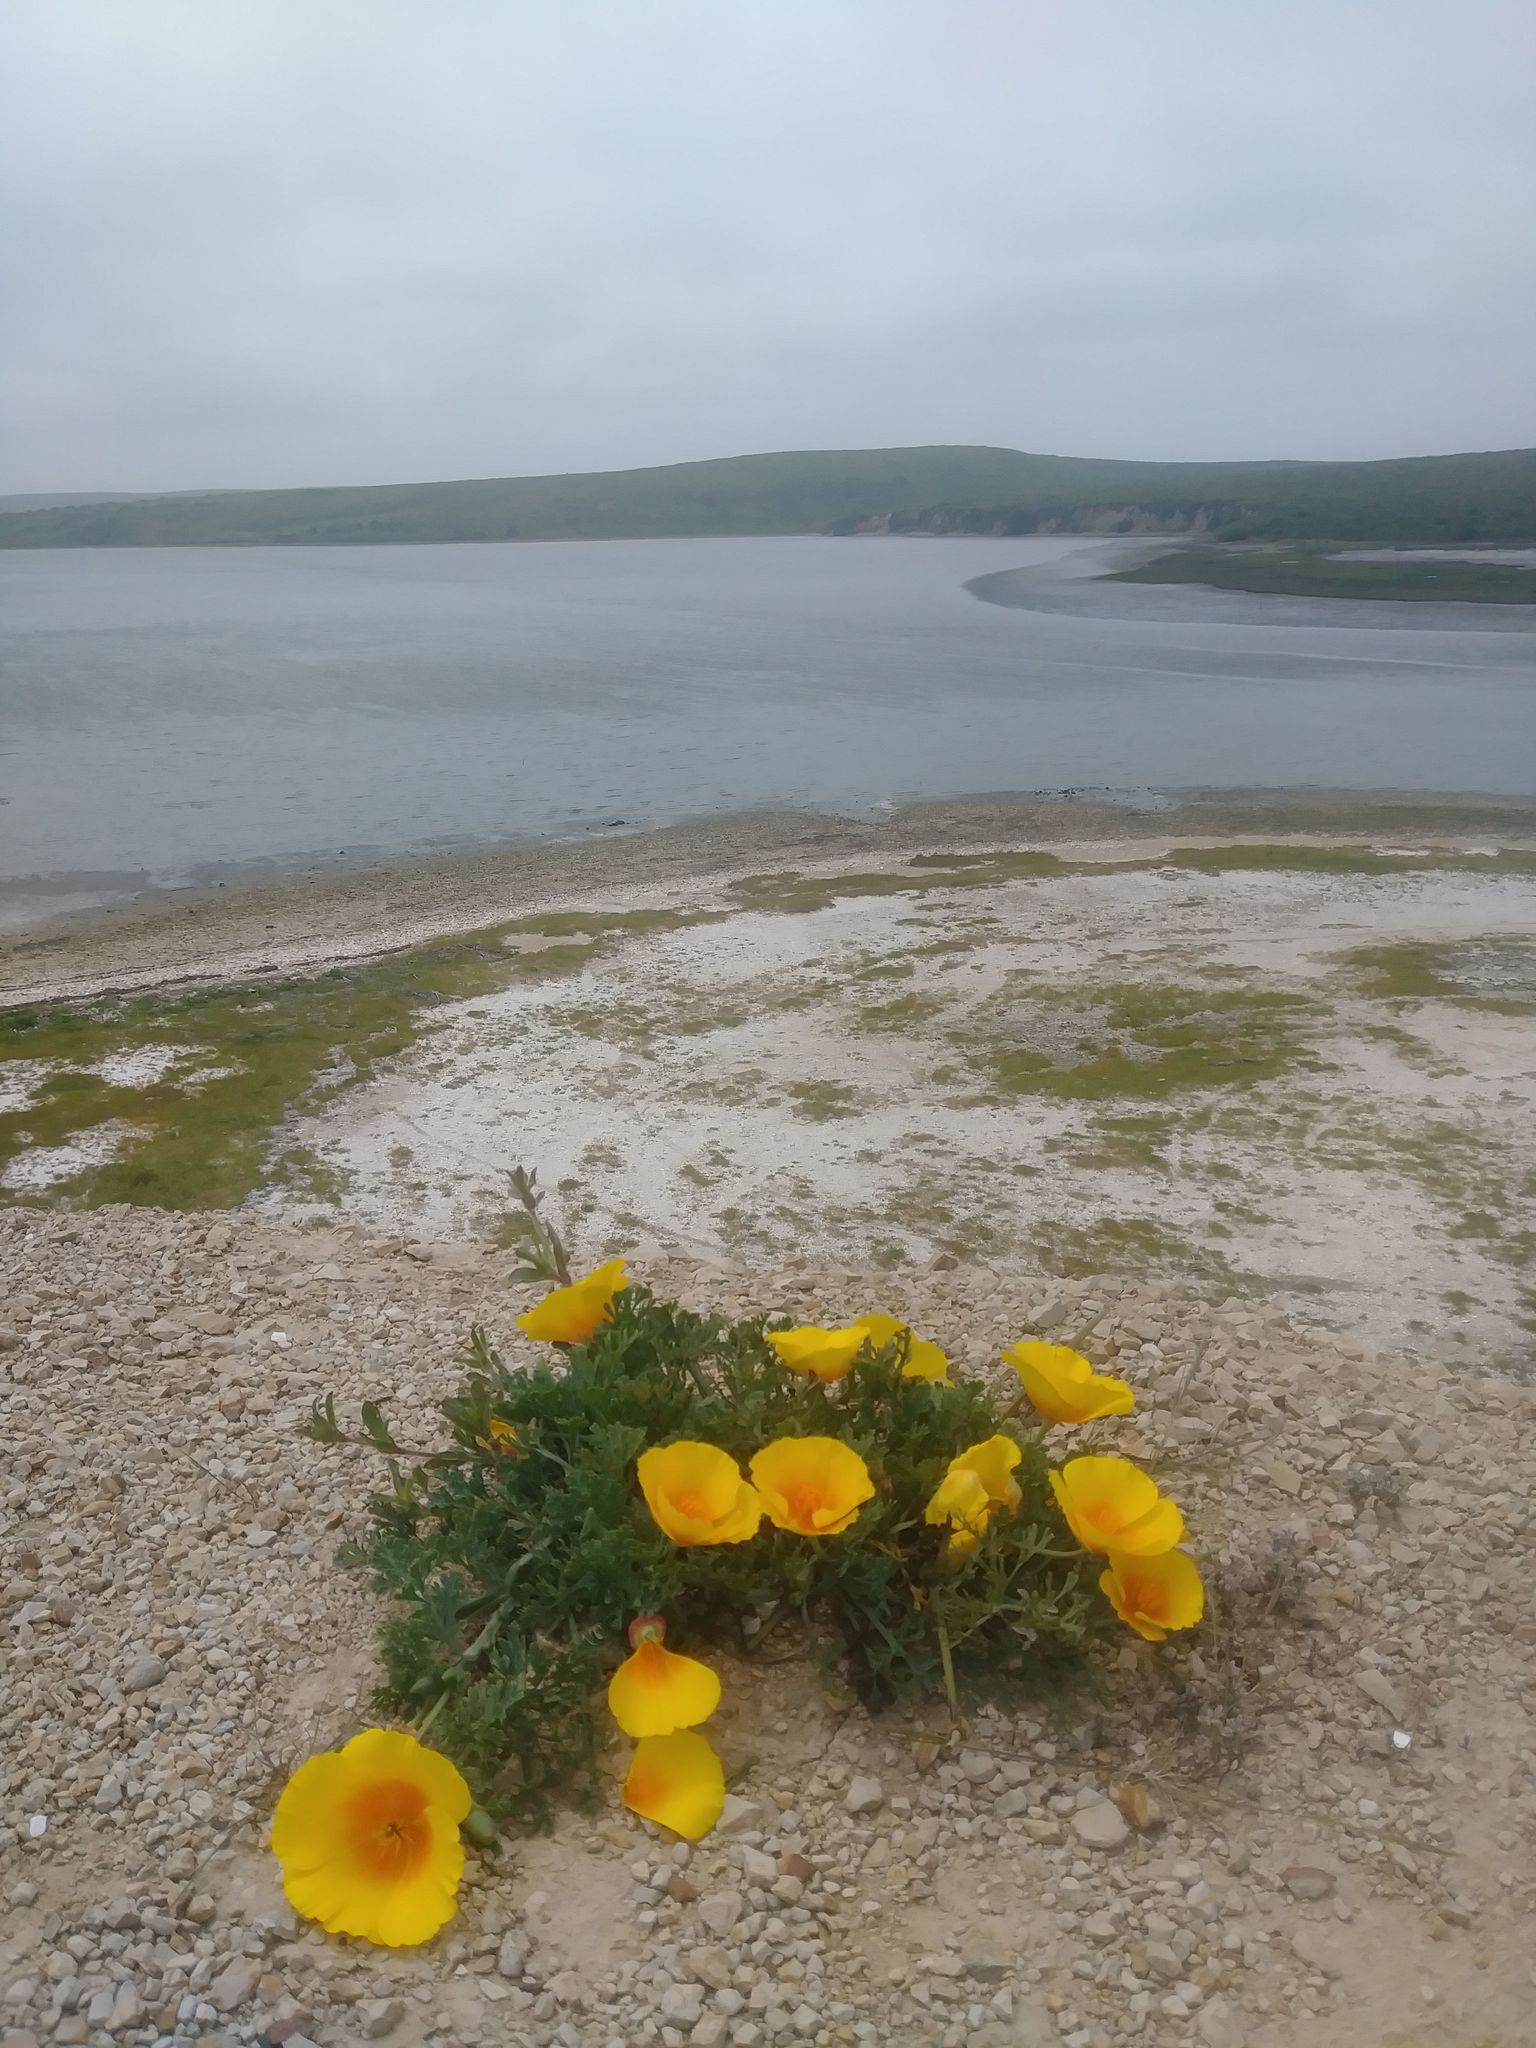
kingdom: Plantae
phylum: Tracheophyta
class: Magnoliopsida
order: Ranunculales
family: Papaveraceae
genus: Eschscholzia
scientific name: Eschscholzia californica
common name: California poppy
